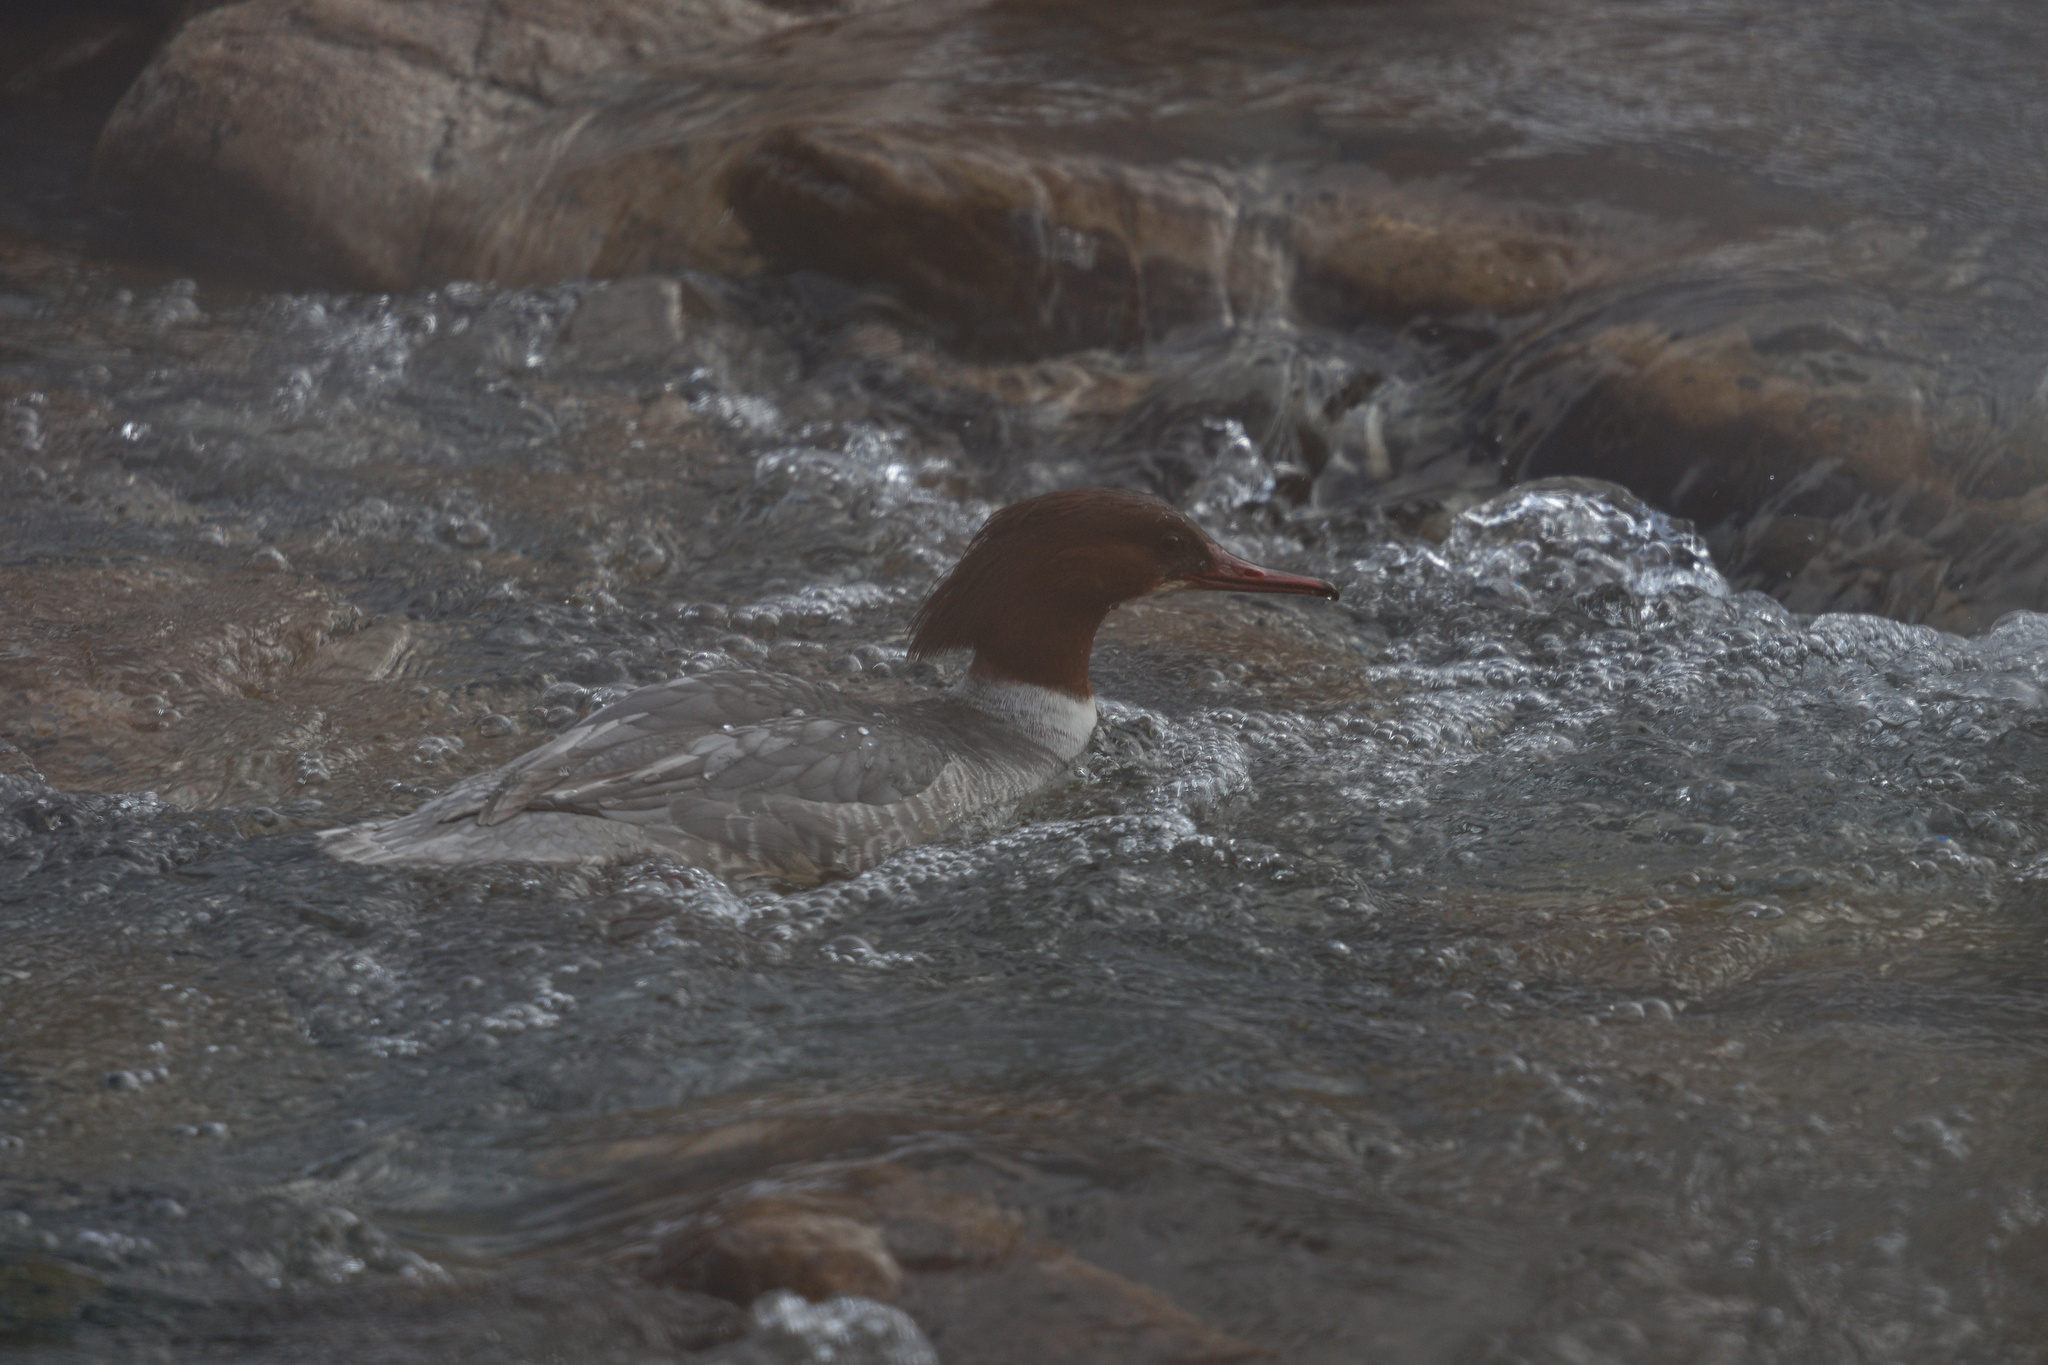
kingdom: Animalia
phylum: Chordata
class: Aves
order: Anseriformes
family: Anatidae
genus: Mergus
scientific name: Mergus merganser
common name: Common merganser
